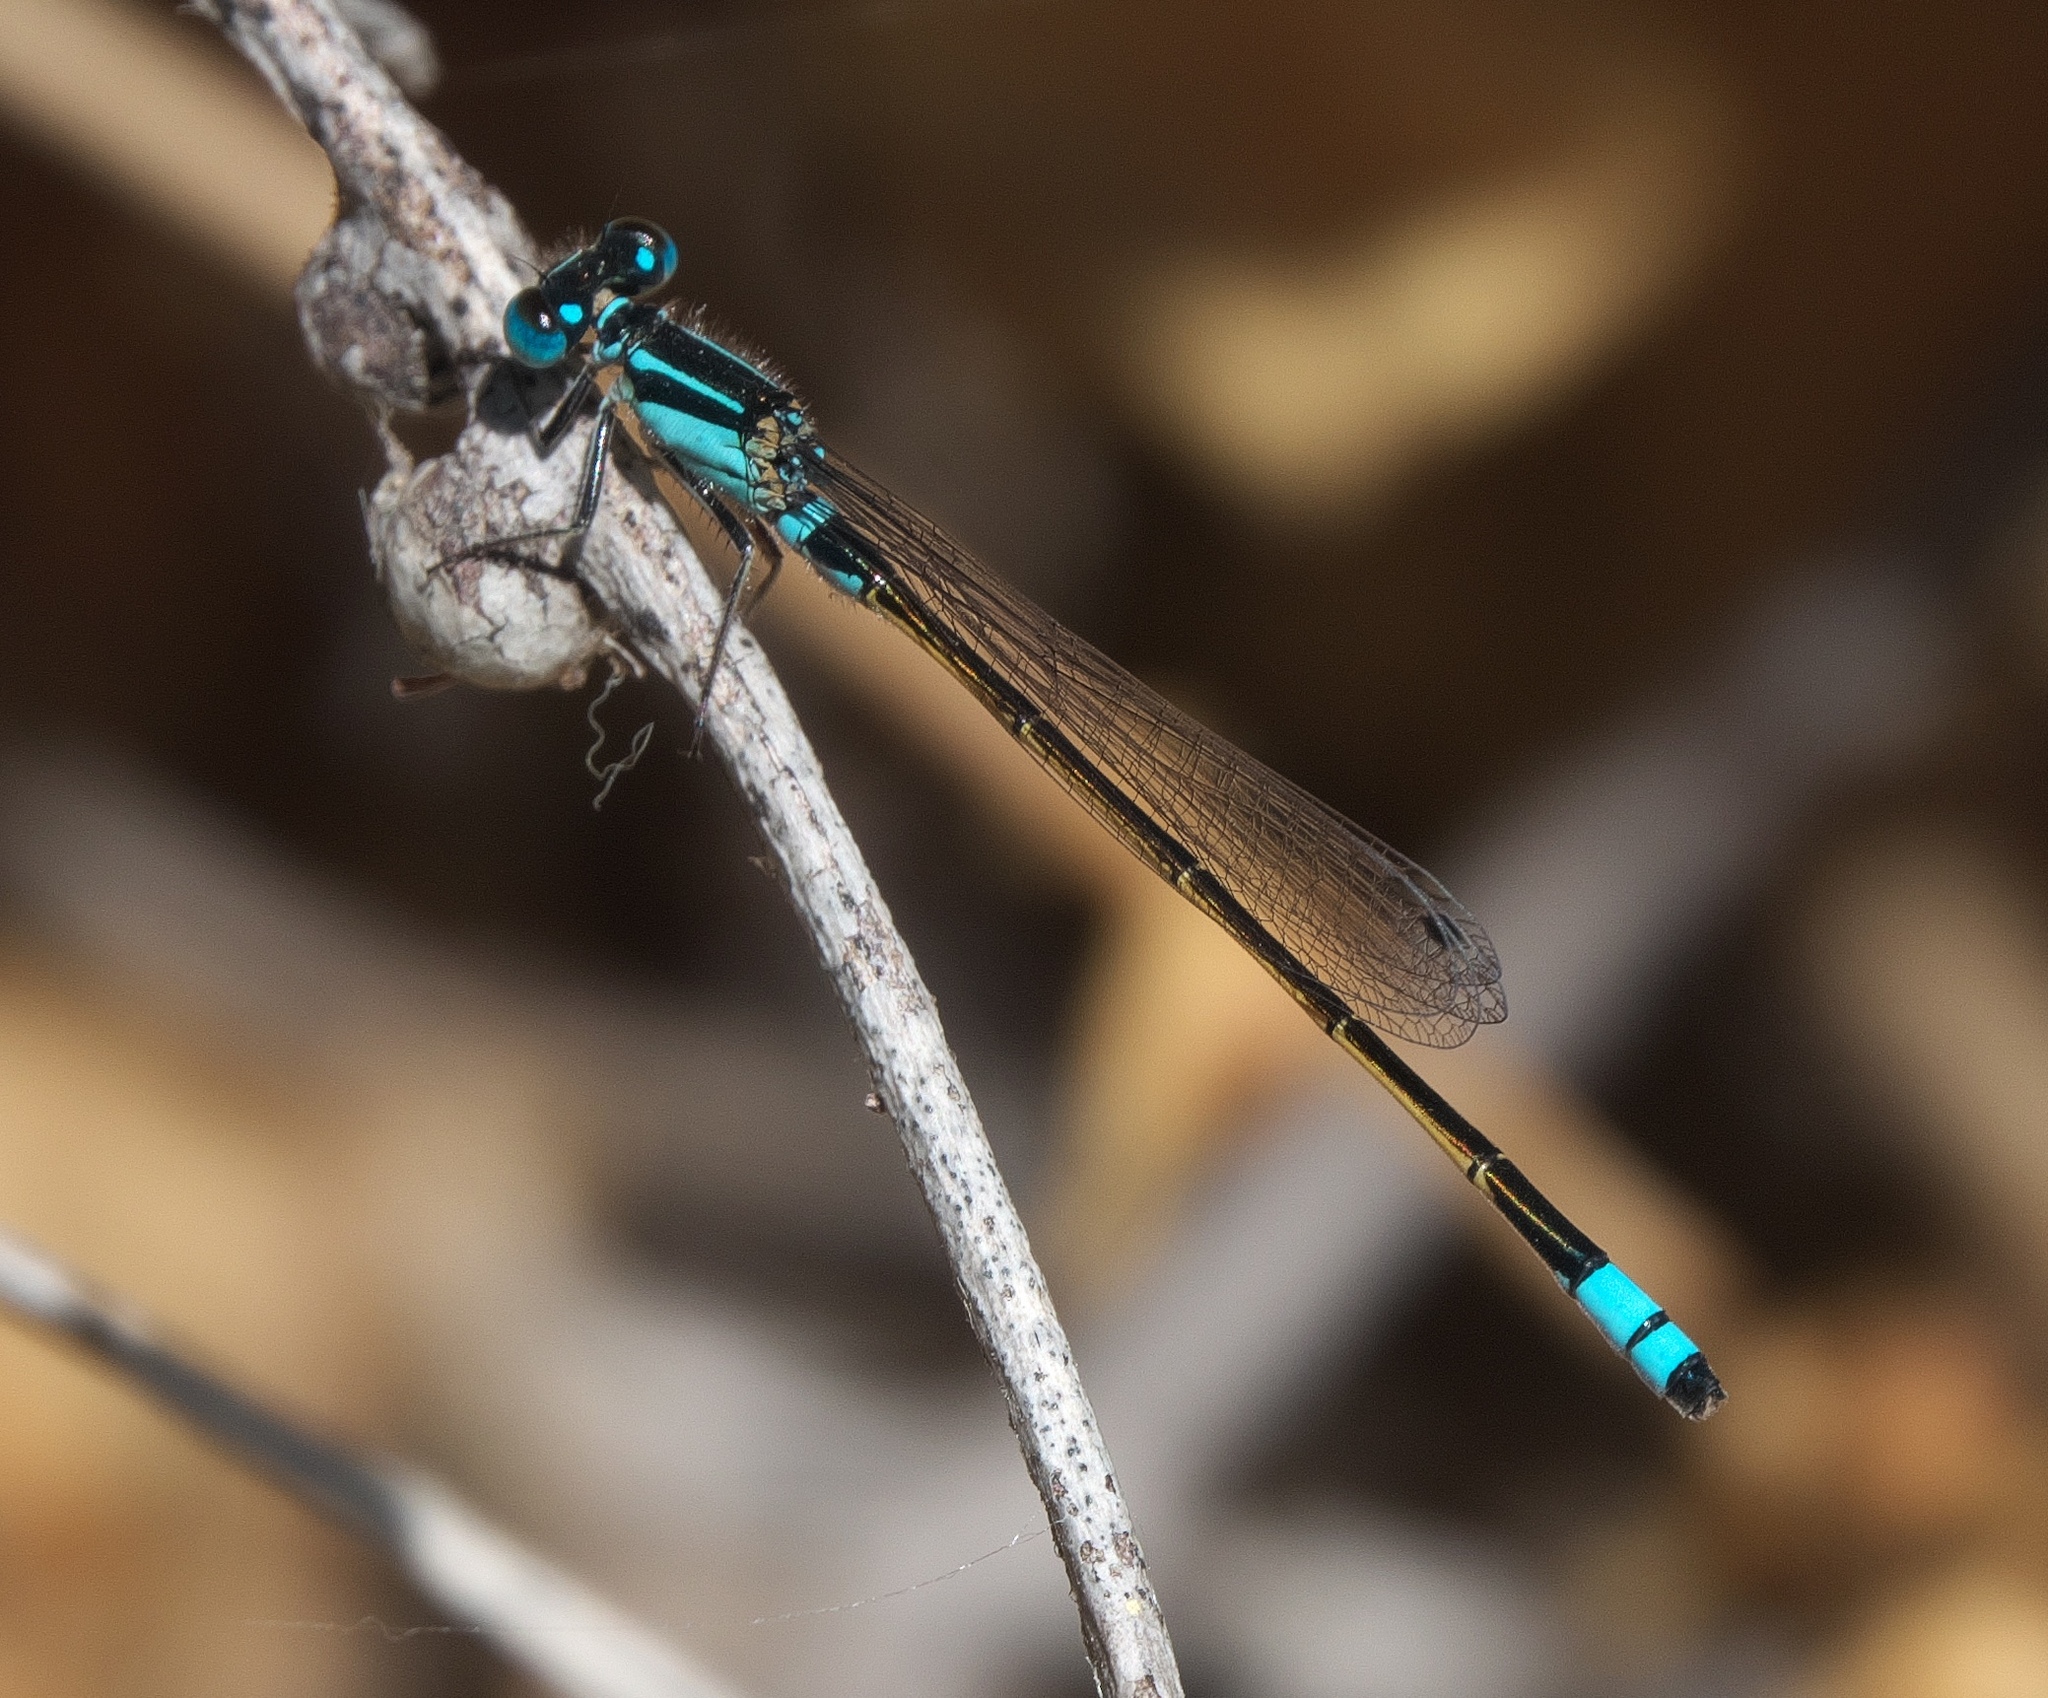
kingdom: Animalia
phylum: Arthropoda
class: Insecta
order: Odonata
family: Coenagrionidae
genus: Ischnura
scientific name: Ischnura heterosticta
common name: Common bluetail
